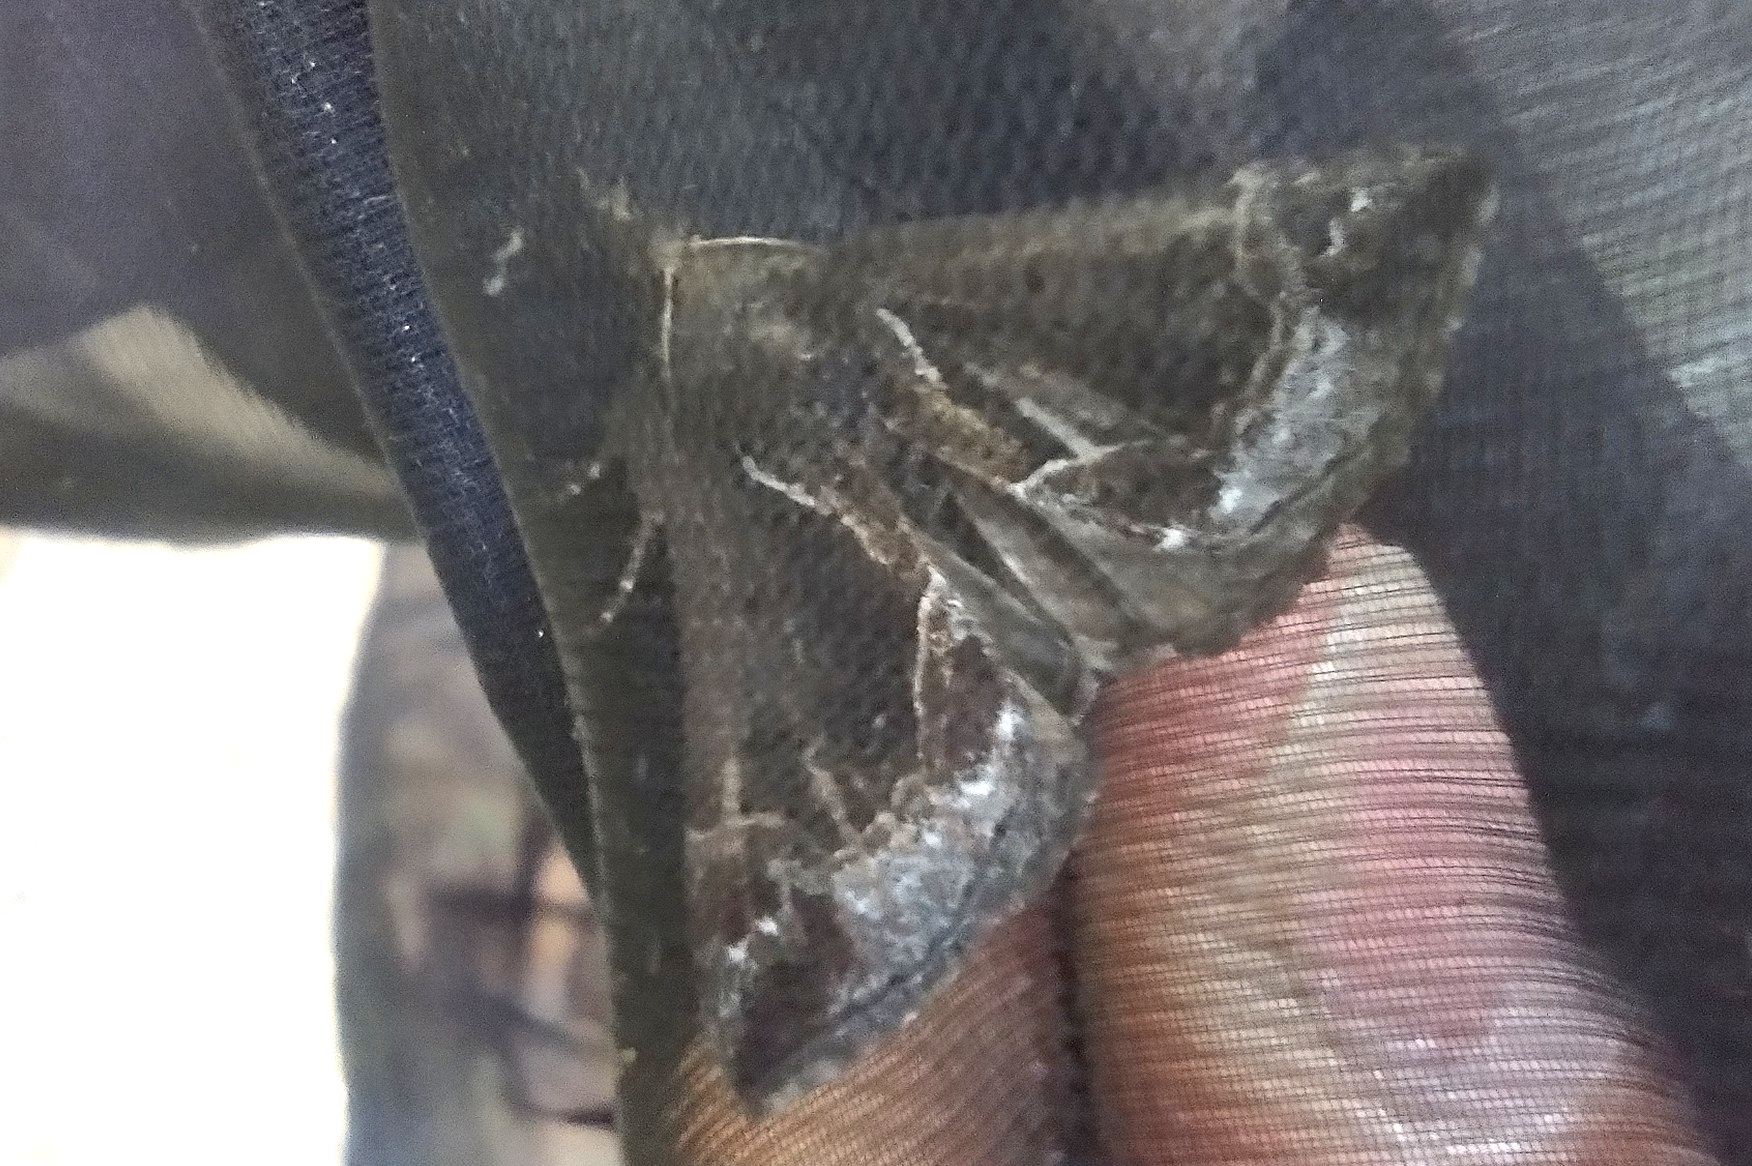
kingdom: Animalia
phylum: Arthropoda
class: Insecta
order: Lepidoptera
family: Erebidae
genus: Hypena
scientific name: Hypena crassalis
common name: Beautiful snout
